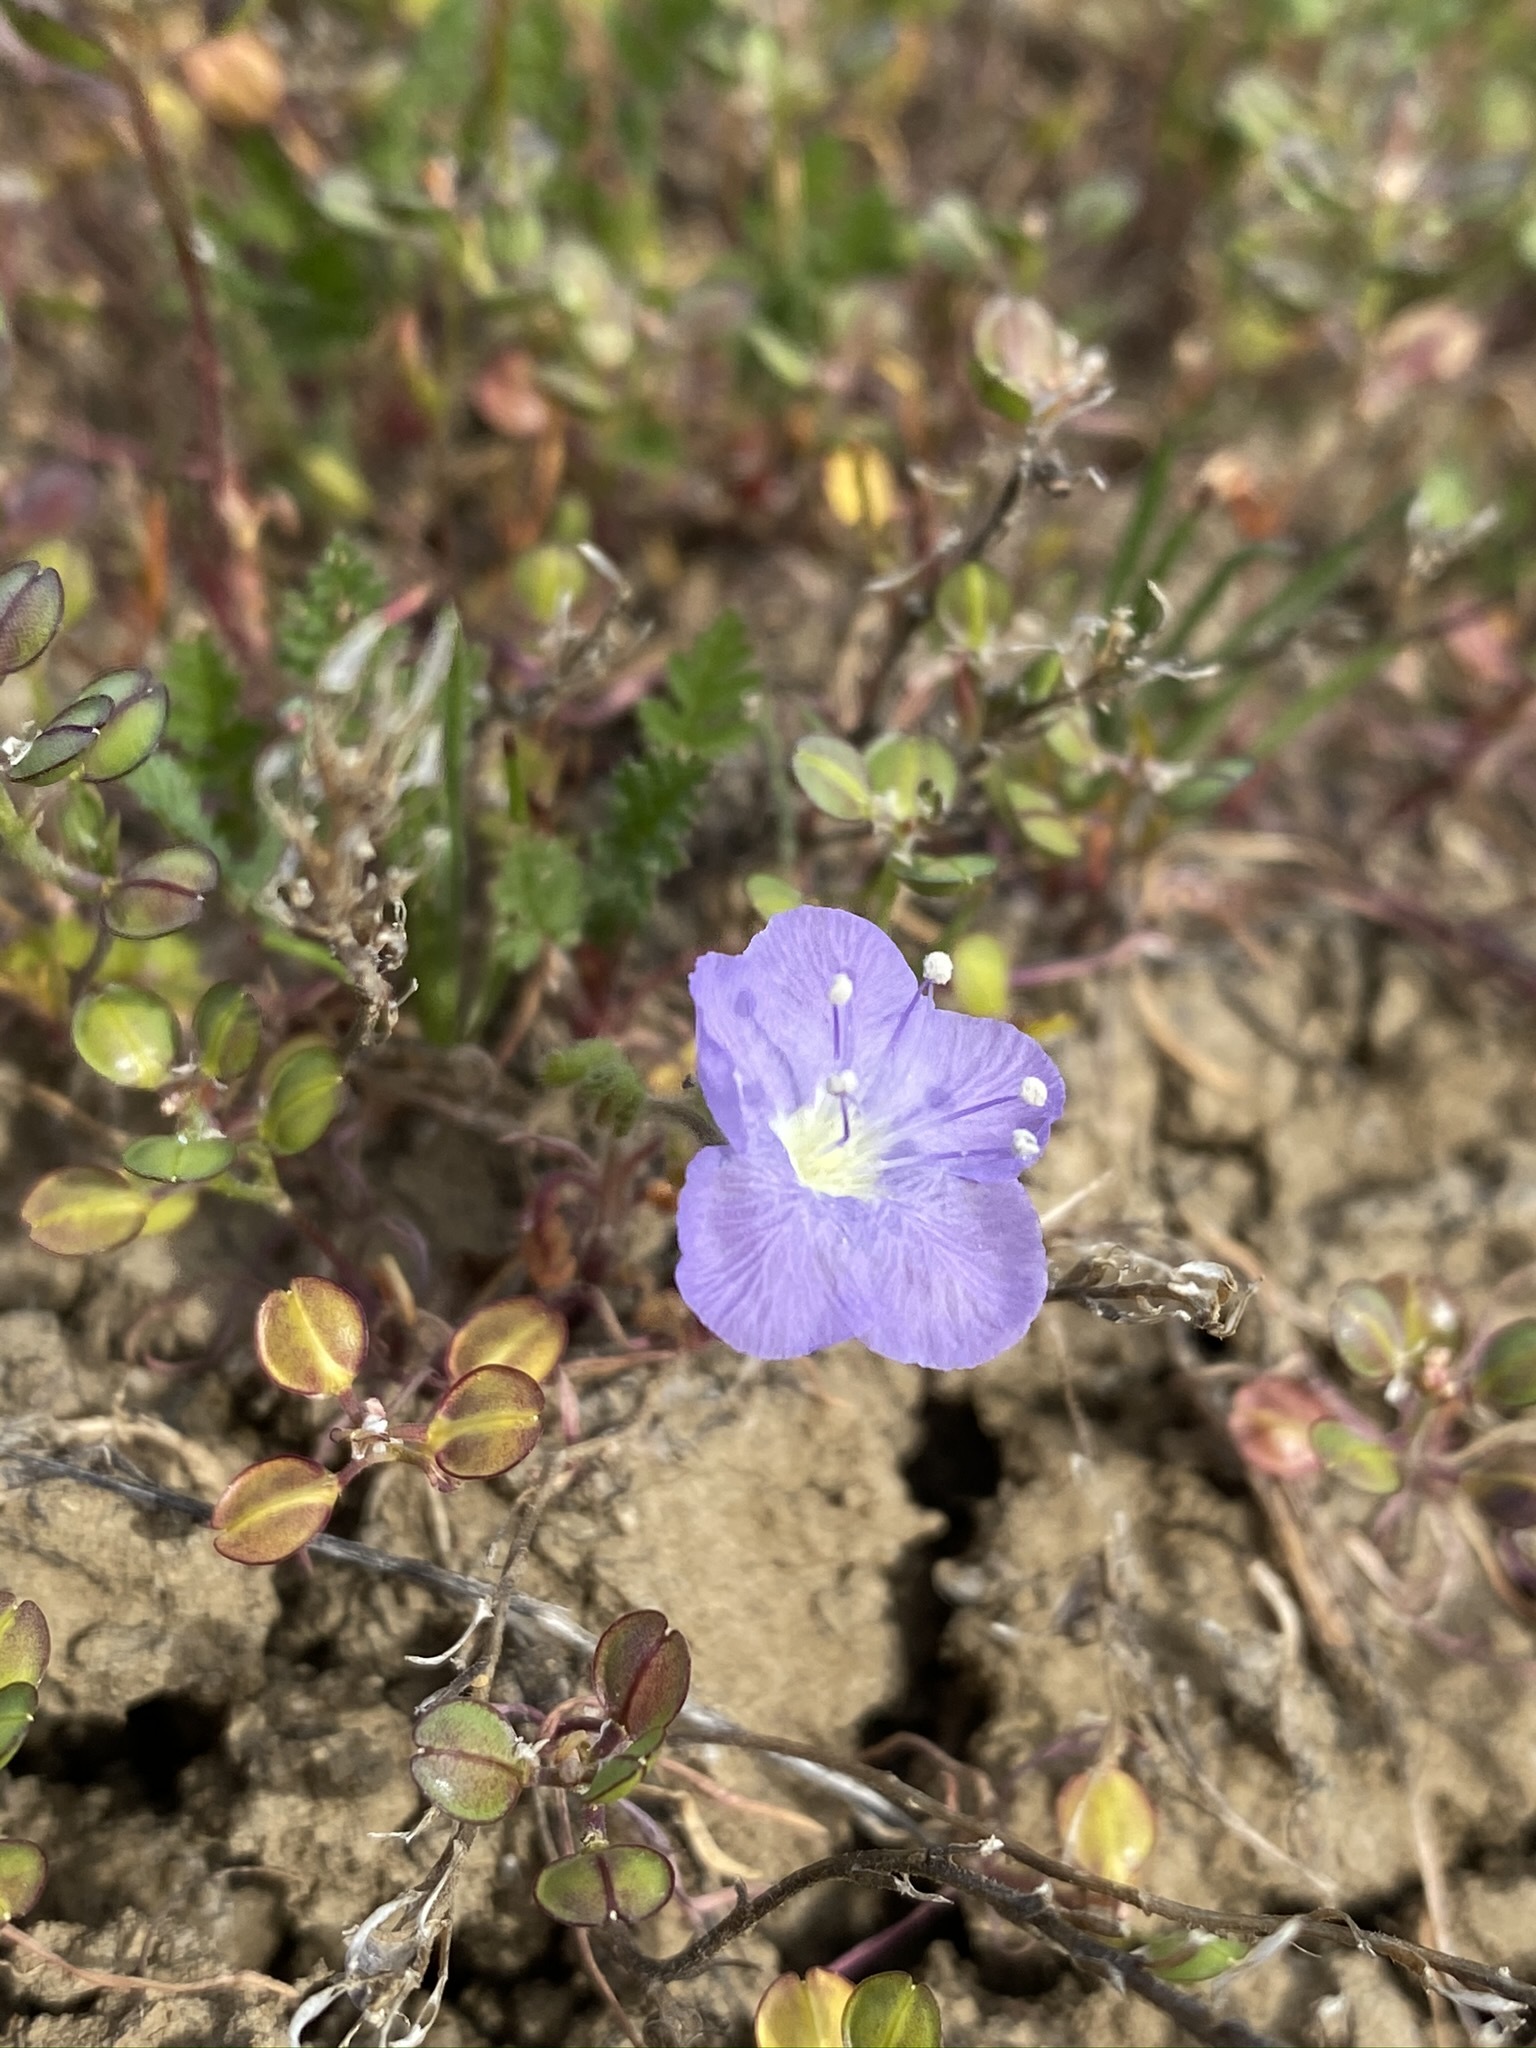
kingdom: Plantae
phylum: Tracheophyta
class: Magnoliopsida
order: Boraginales
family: Hydrophyllaceae
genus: Phacelia
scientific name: Phacelia ciliata
